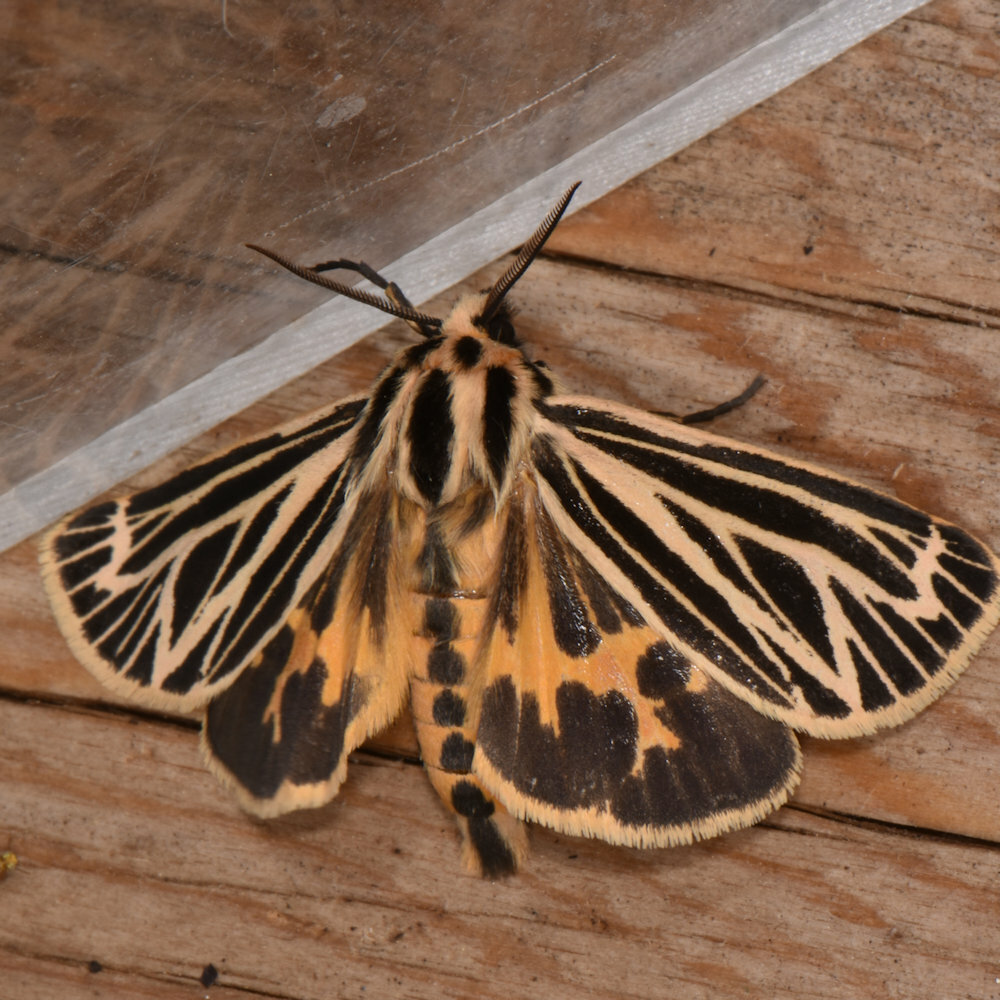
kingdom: Animalia
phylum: Arthropoda
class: Insecta
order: Lepidoptera
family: Erebidae
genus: Grammia
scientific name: Grammia virguncula
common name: Little tiger moth
